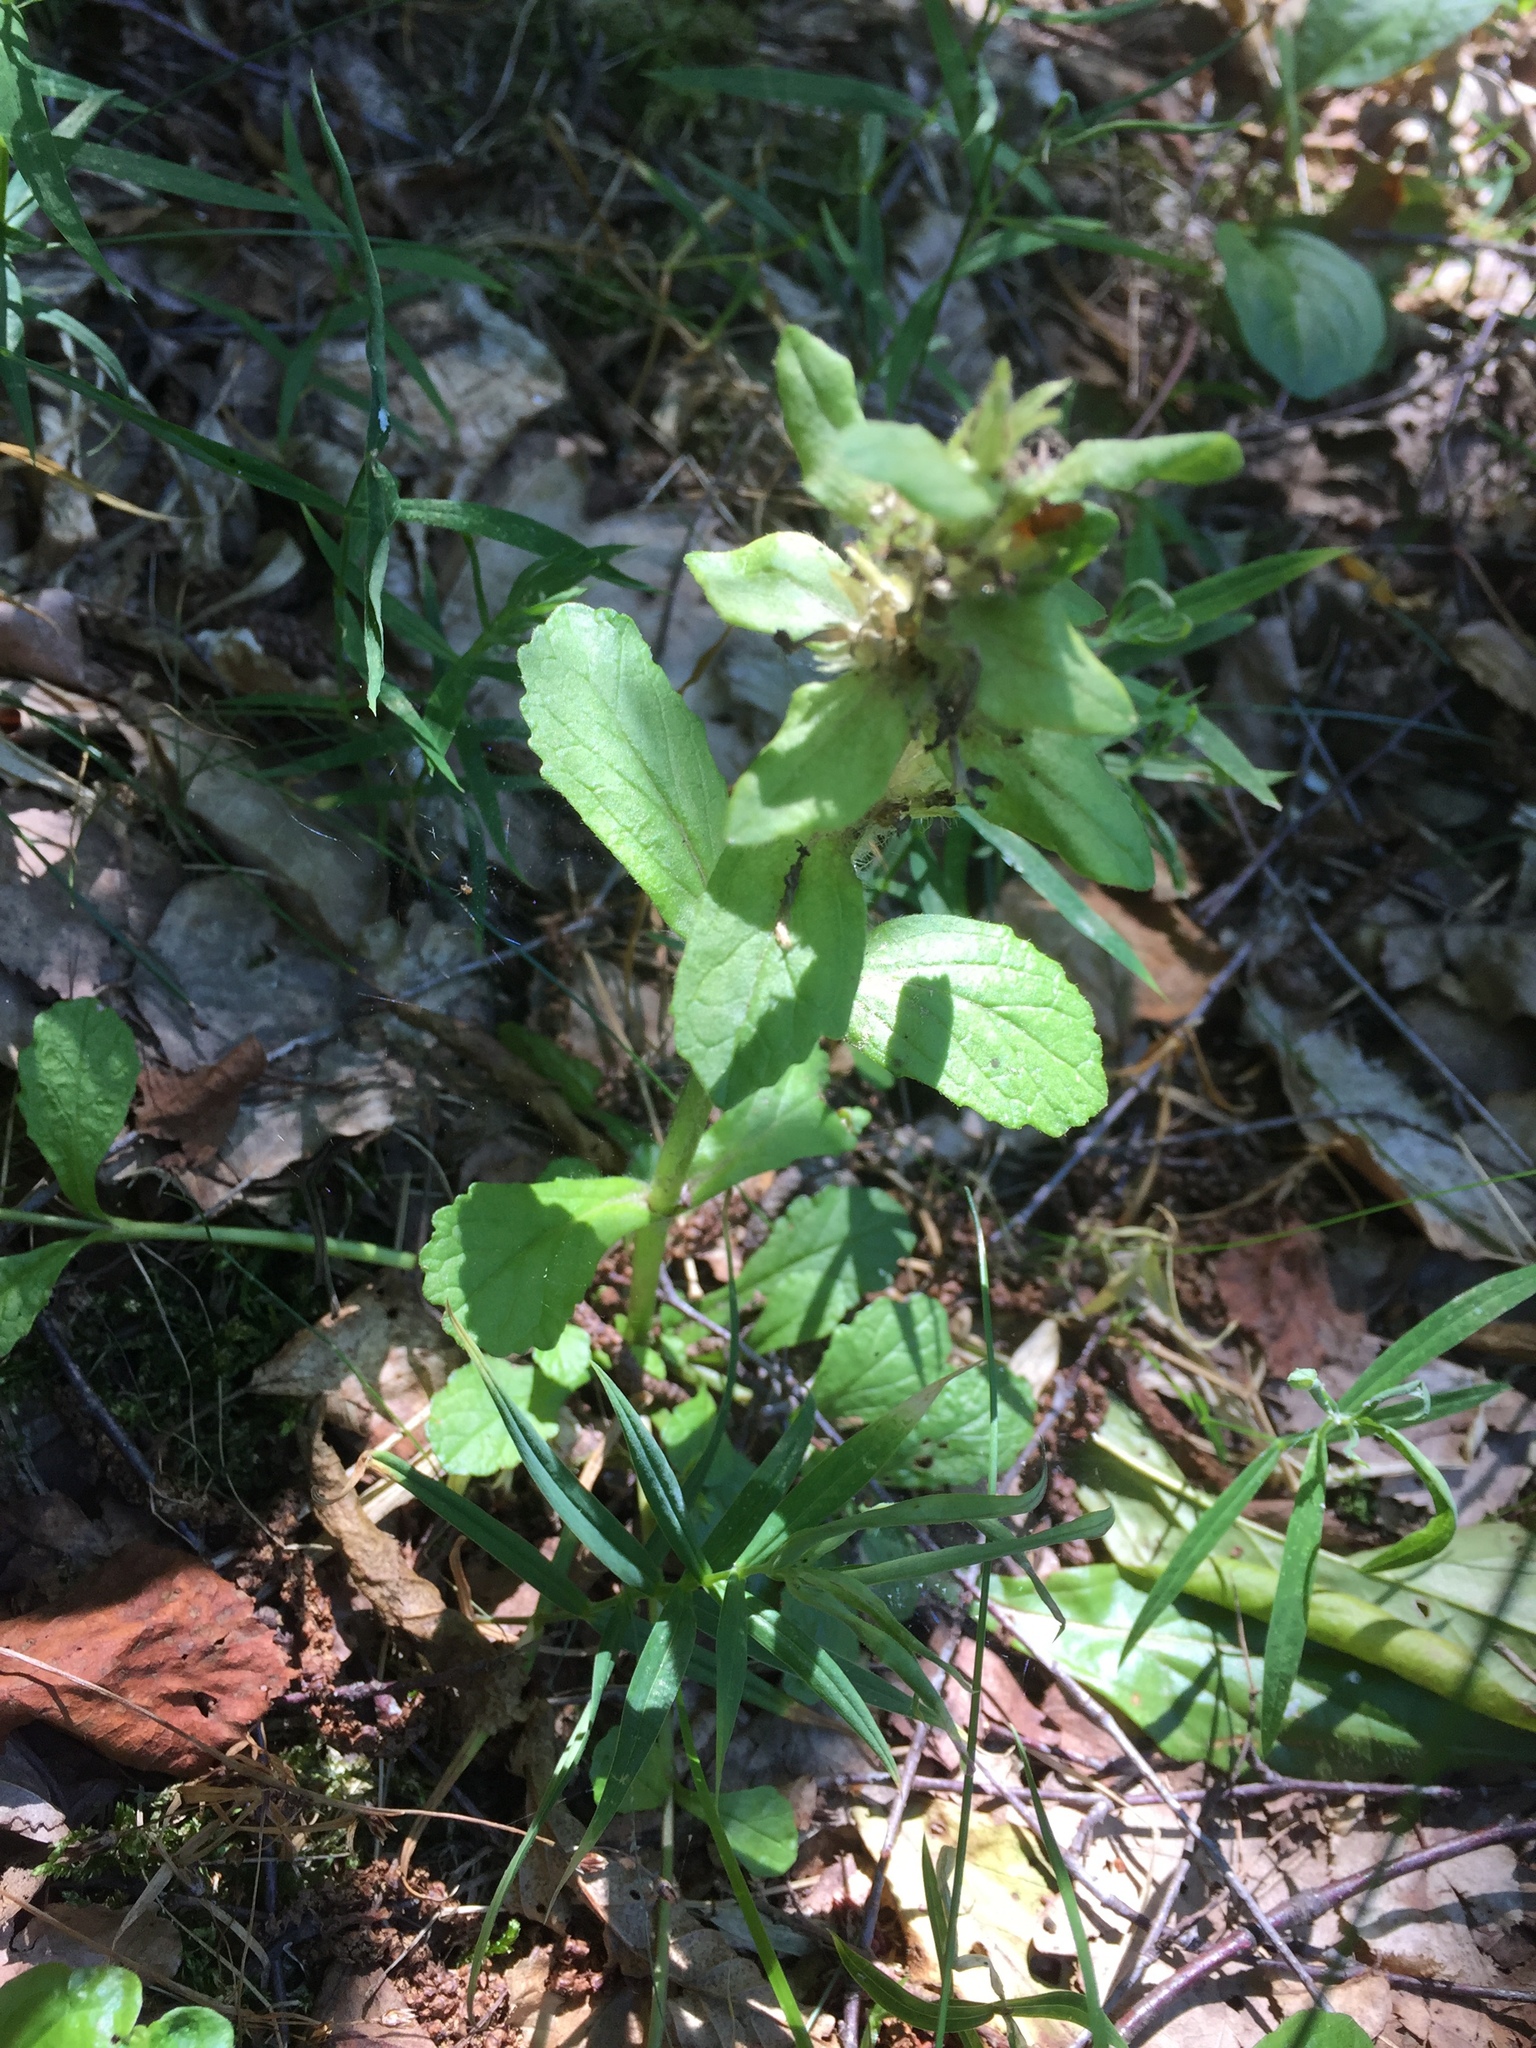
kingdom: Plantae
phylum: Tracheophyta
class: Magnoliopsida
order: Lamiales
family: Lamiaceae
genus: Ajuga
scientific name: Ajuga reptans
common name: Bugle
